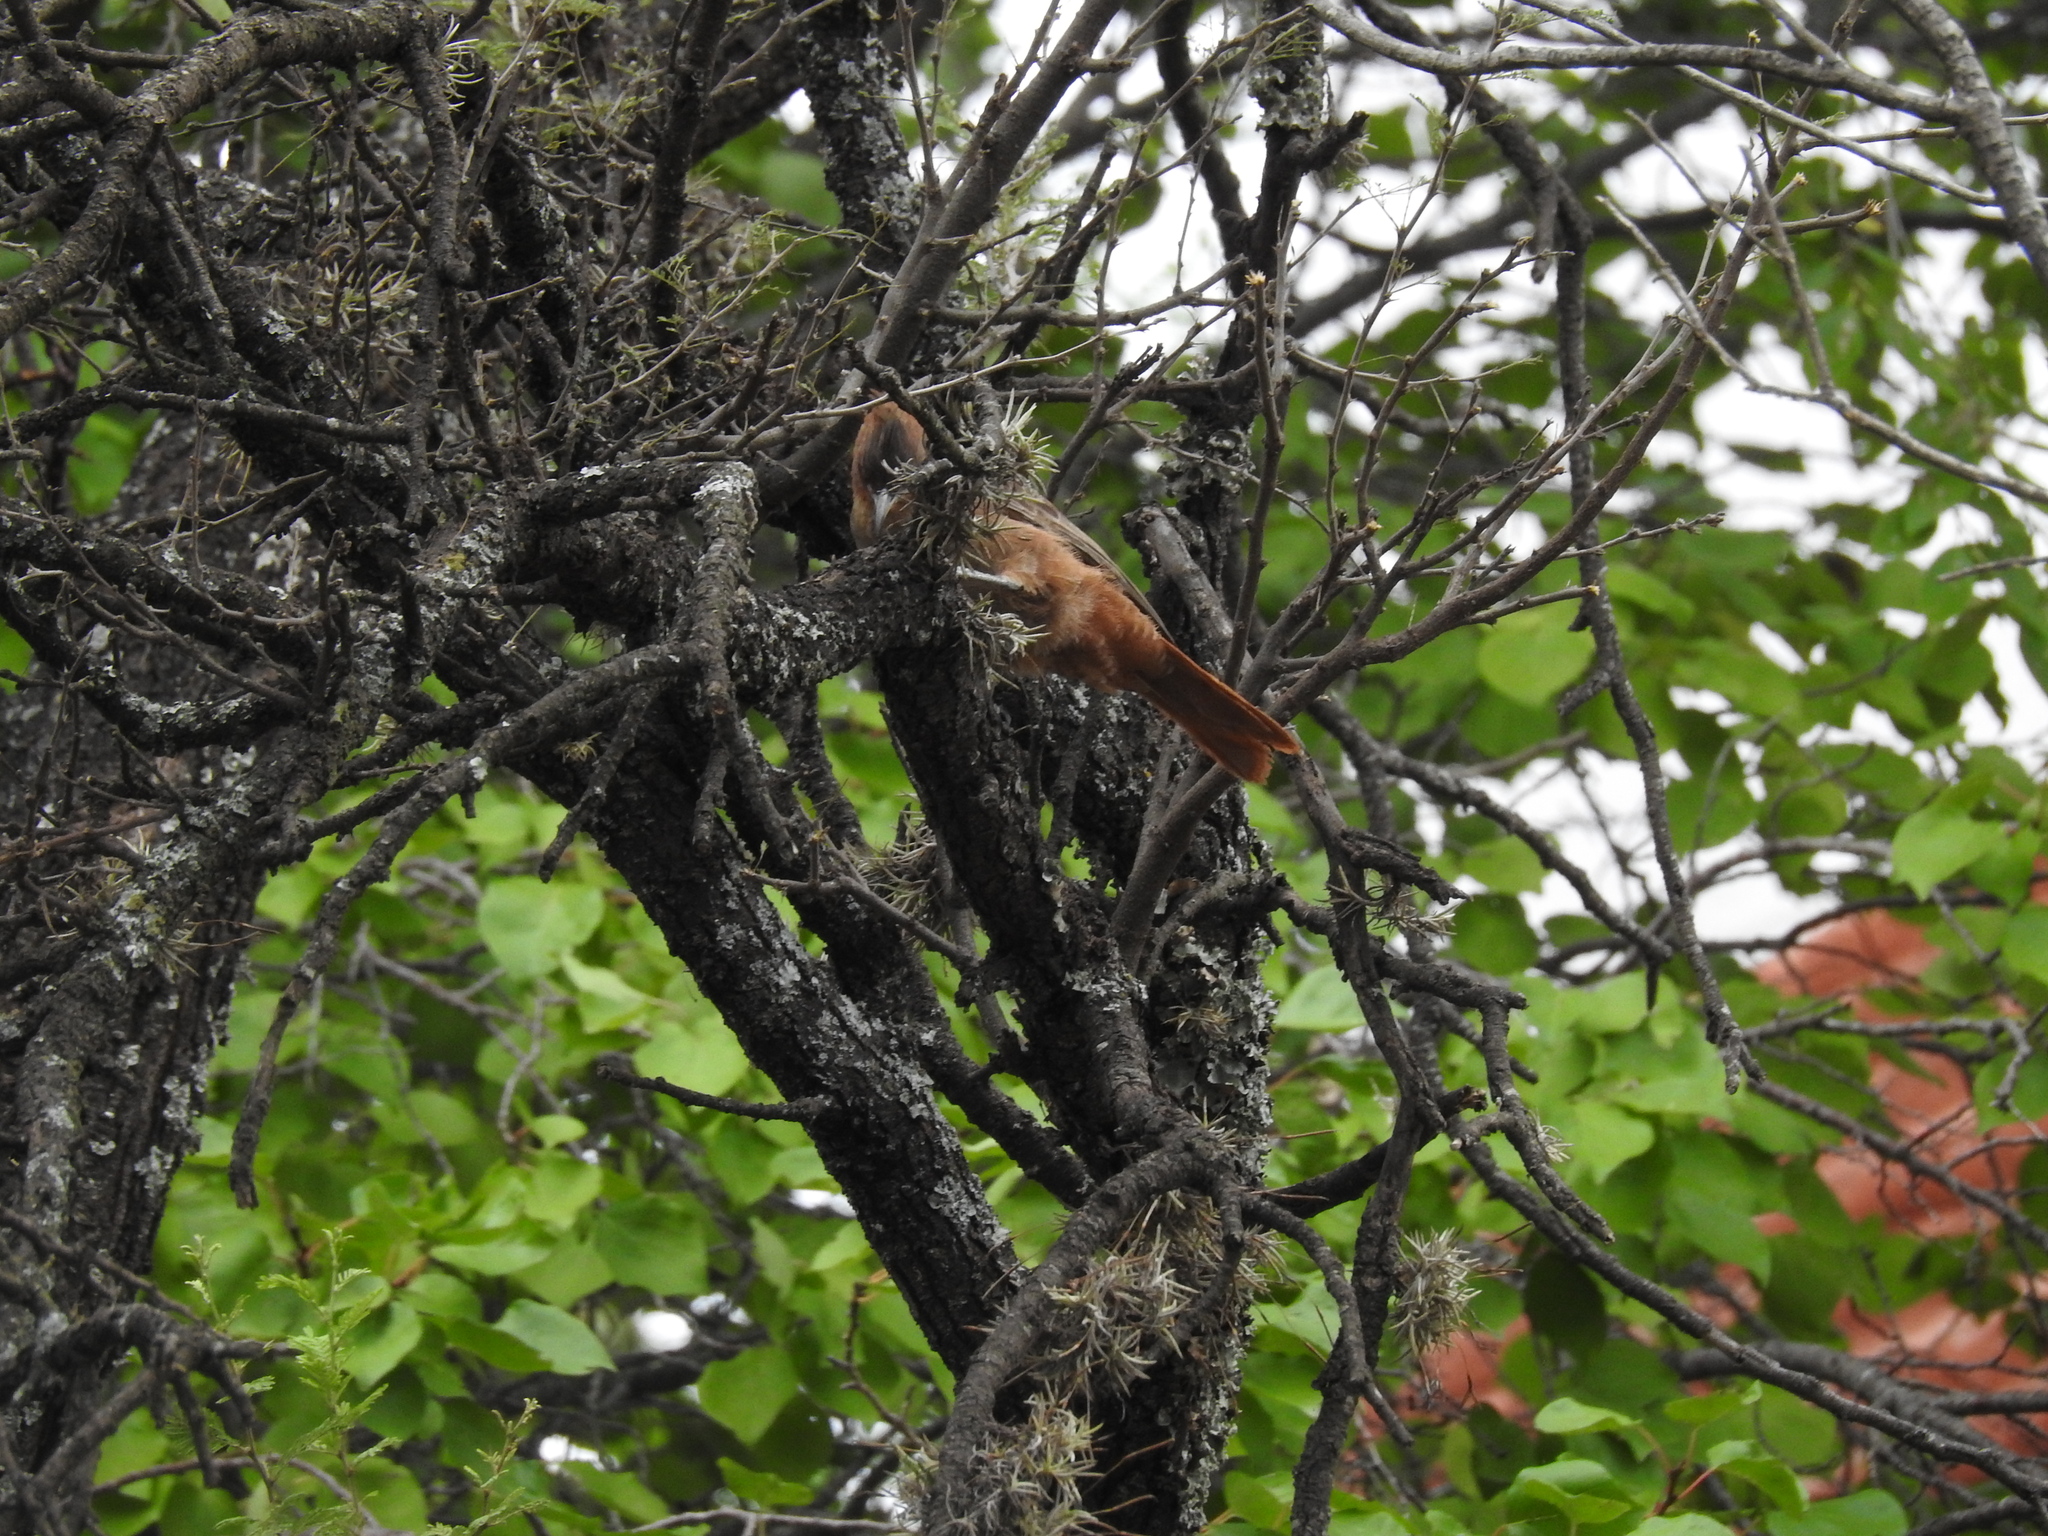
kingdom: Animalia
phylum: Chordata
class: Aves
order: Passeriformes
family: Furnariidae
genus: Pseudoseisura
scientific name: Pseudoseisura lophotes
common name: Brown cacholote
